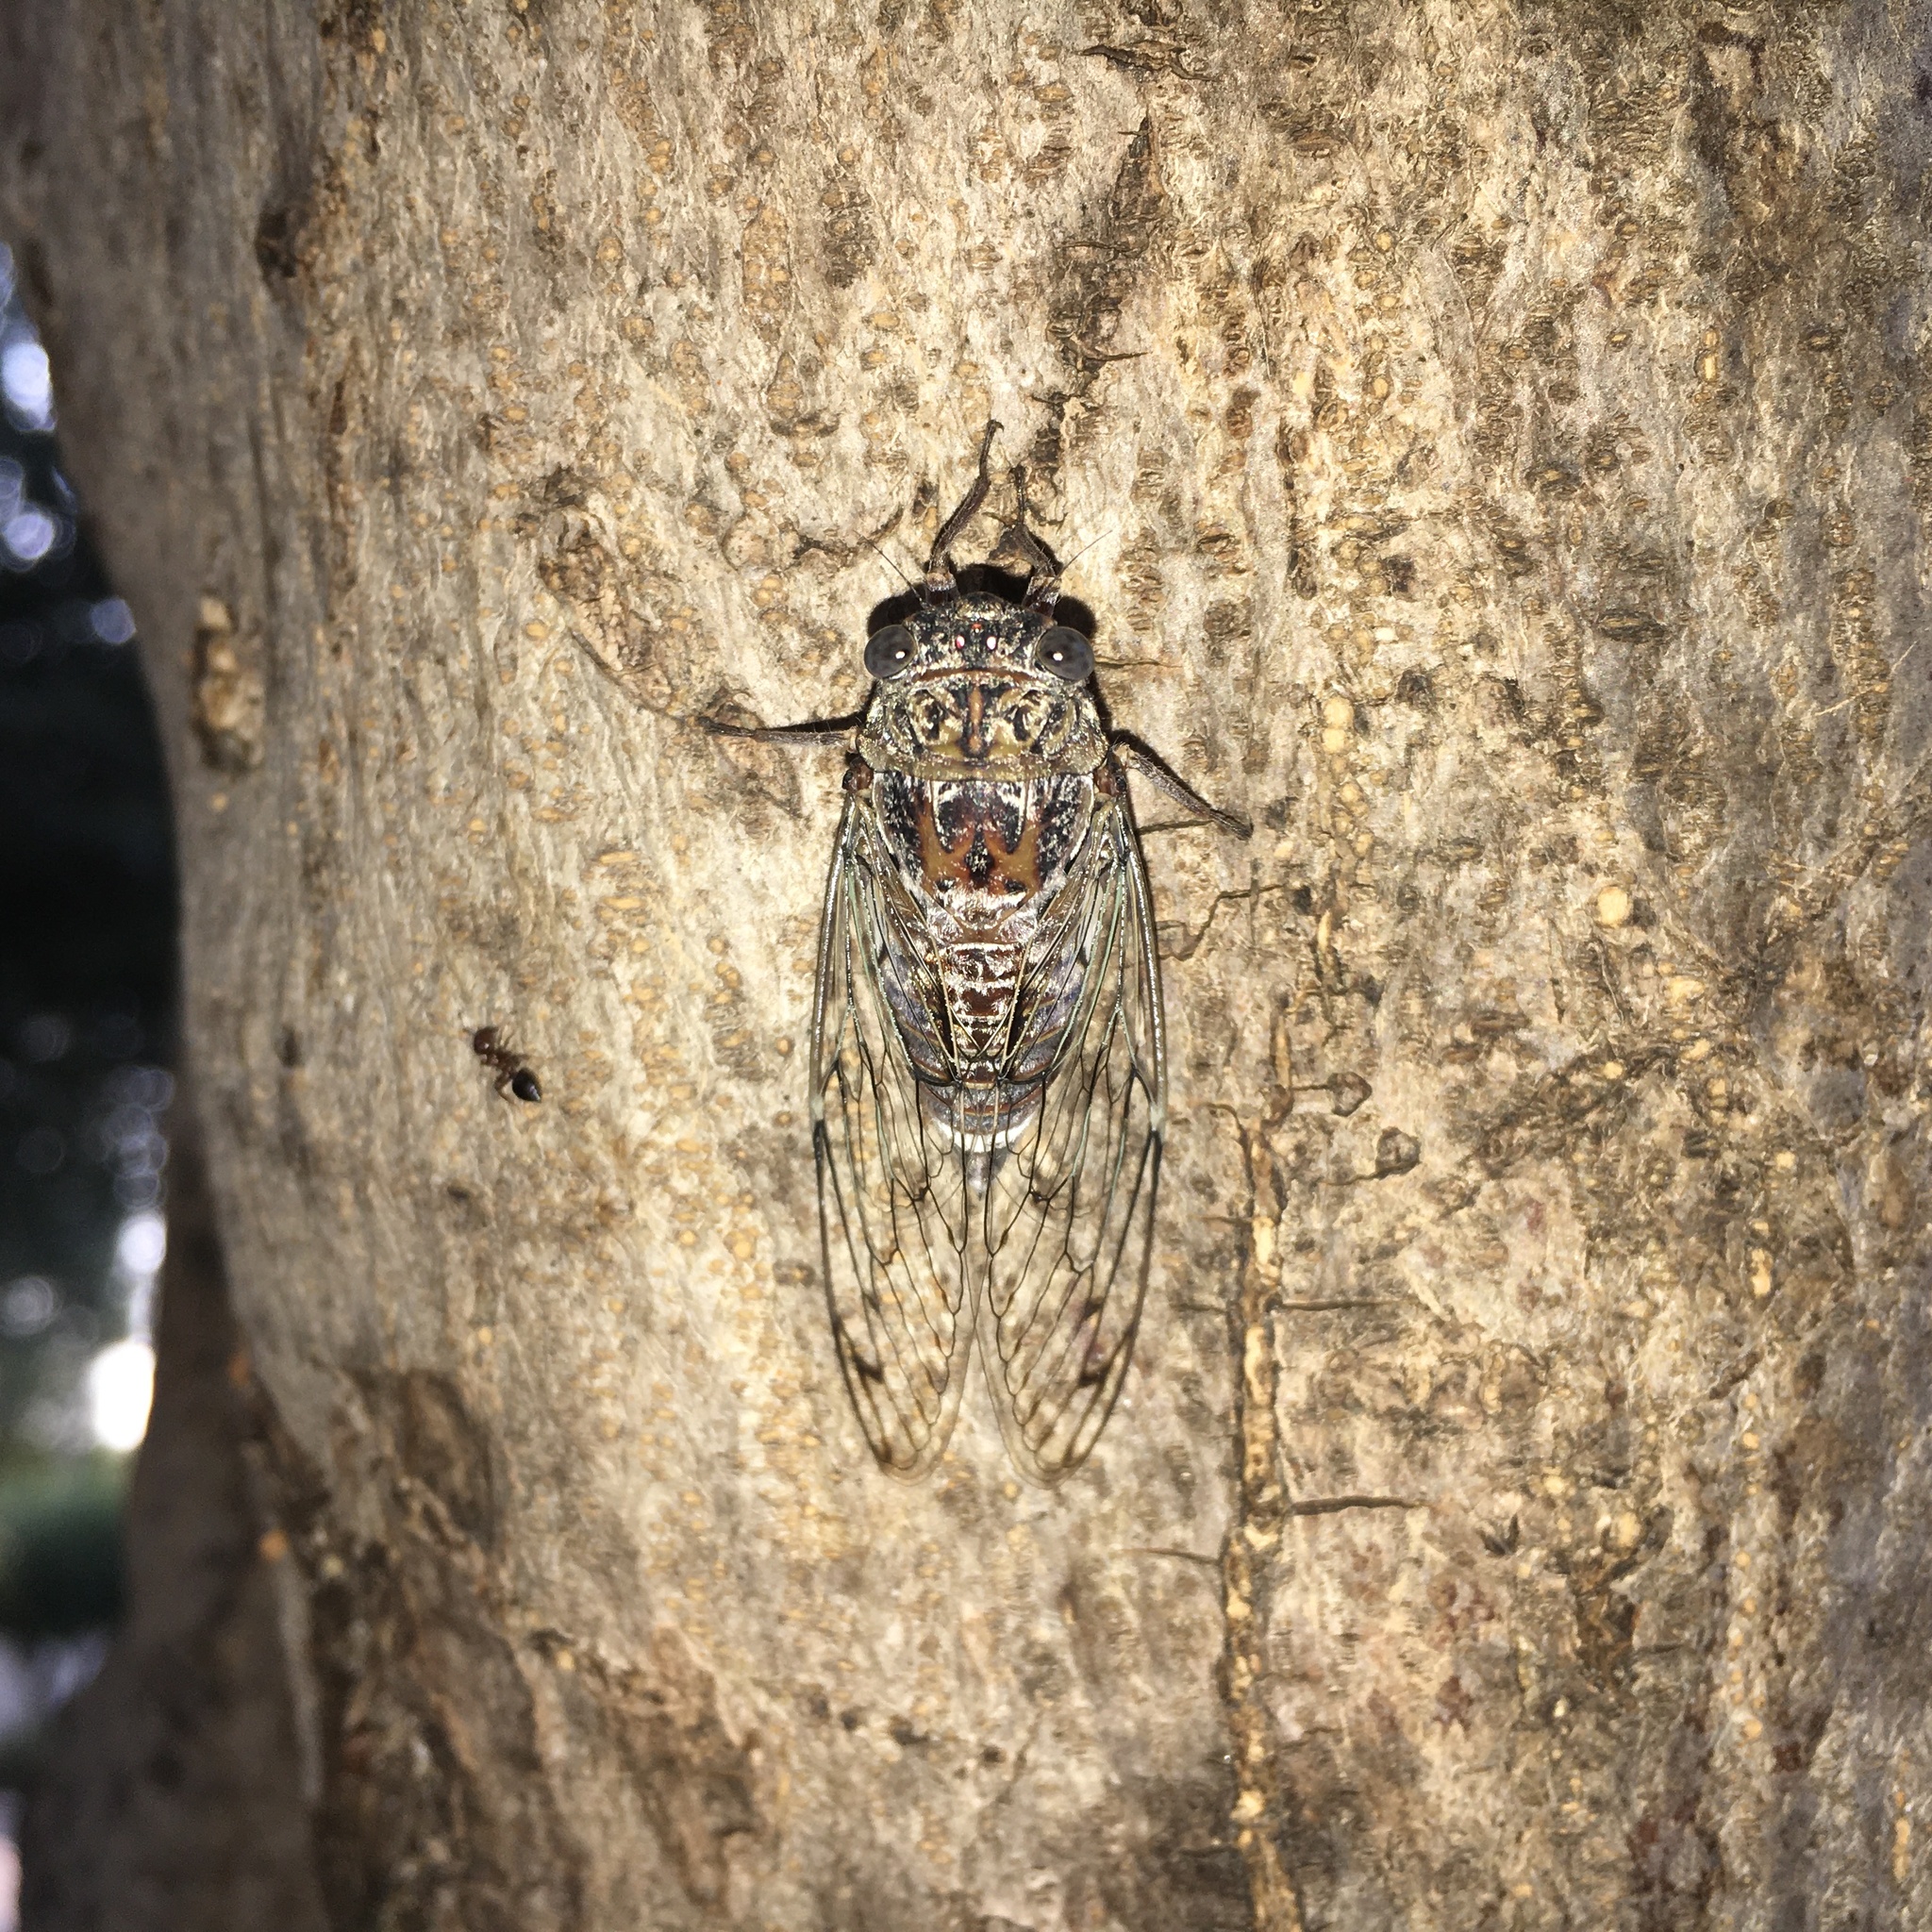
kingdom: Animalia
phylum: Arthropoda
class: Insecta
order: Hemiptera
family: Cicadidae
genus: Cicada
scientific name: Cicada orni
